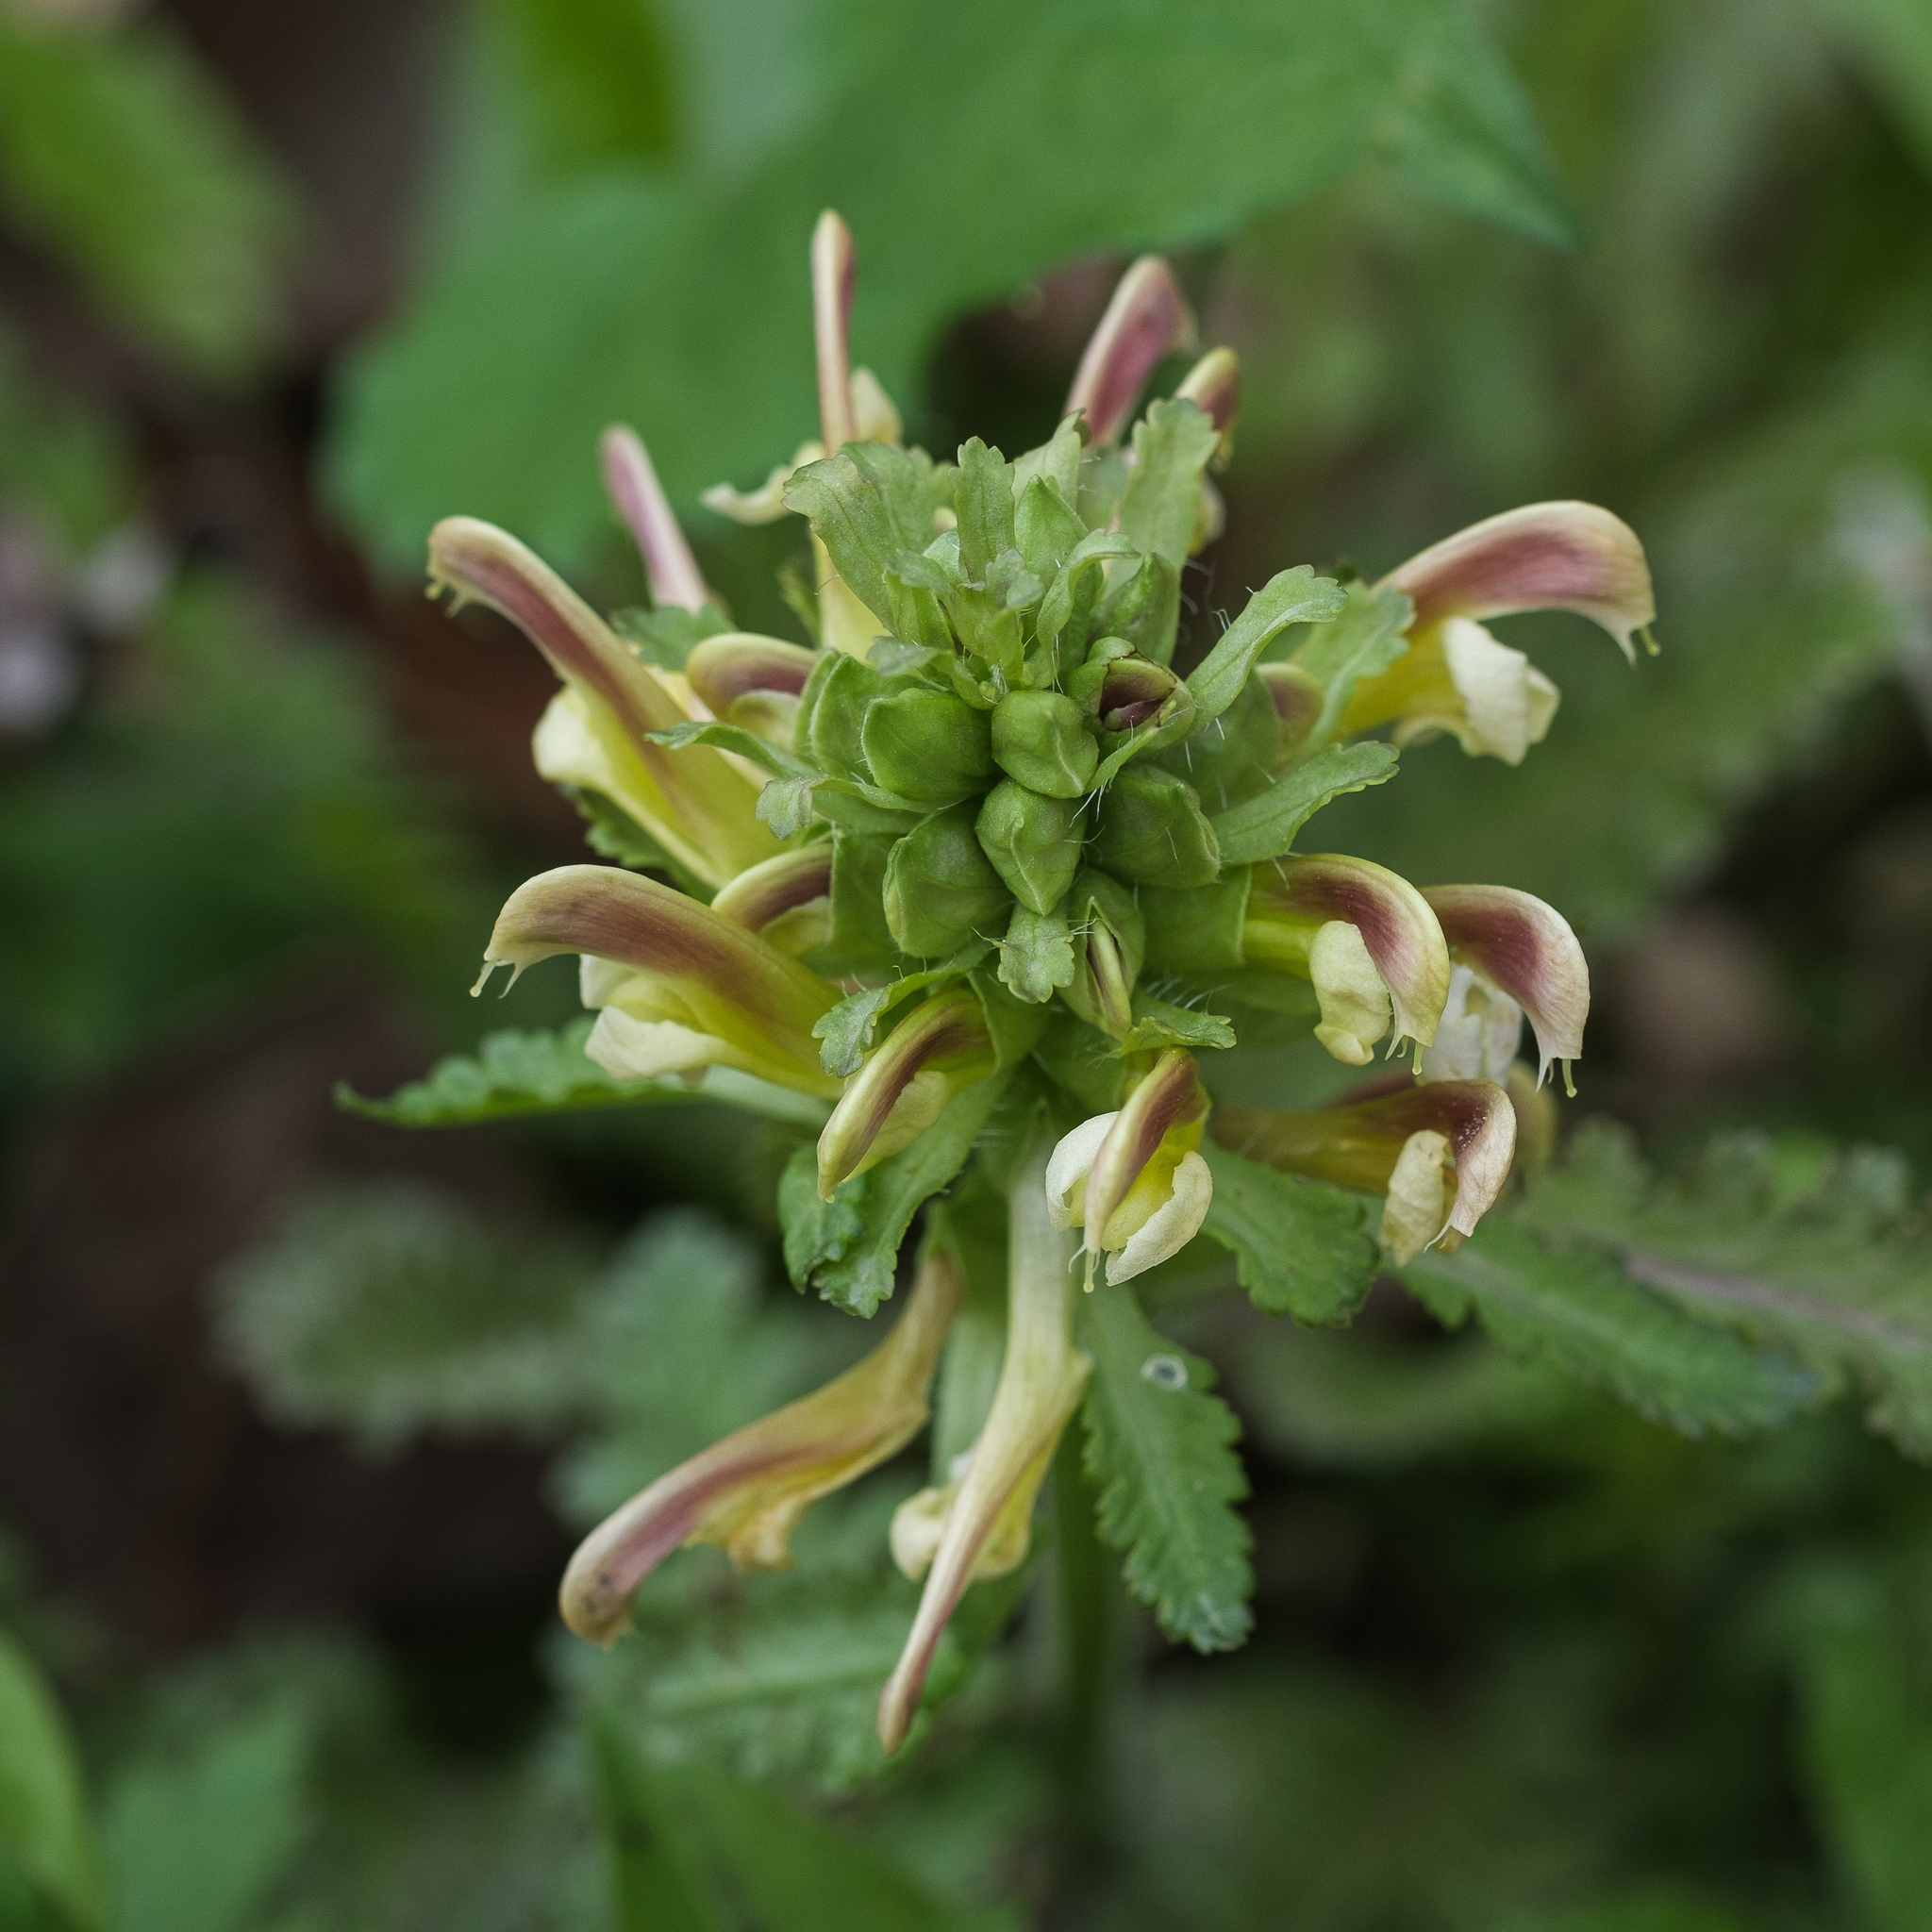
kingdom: Plantae
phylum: Tracheophyta
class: Magnoliopsida
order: Lamiales
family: Orobanchaceae
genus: Pedicularis
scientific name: Pedicularis canadensis
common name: Early lousewort
